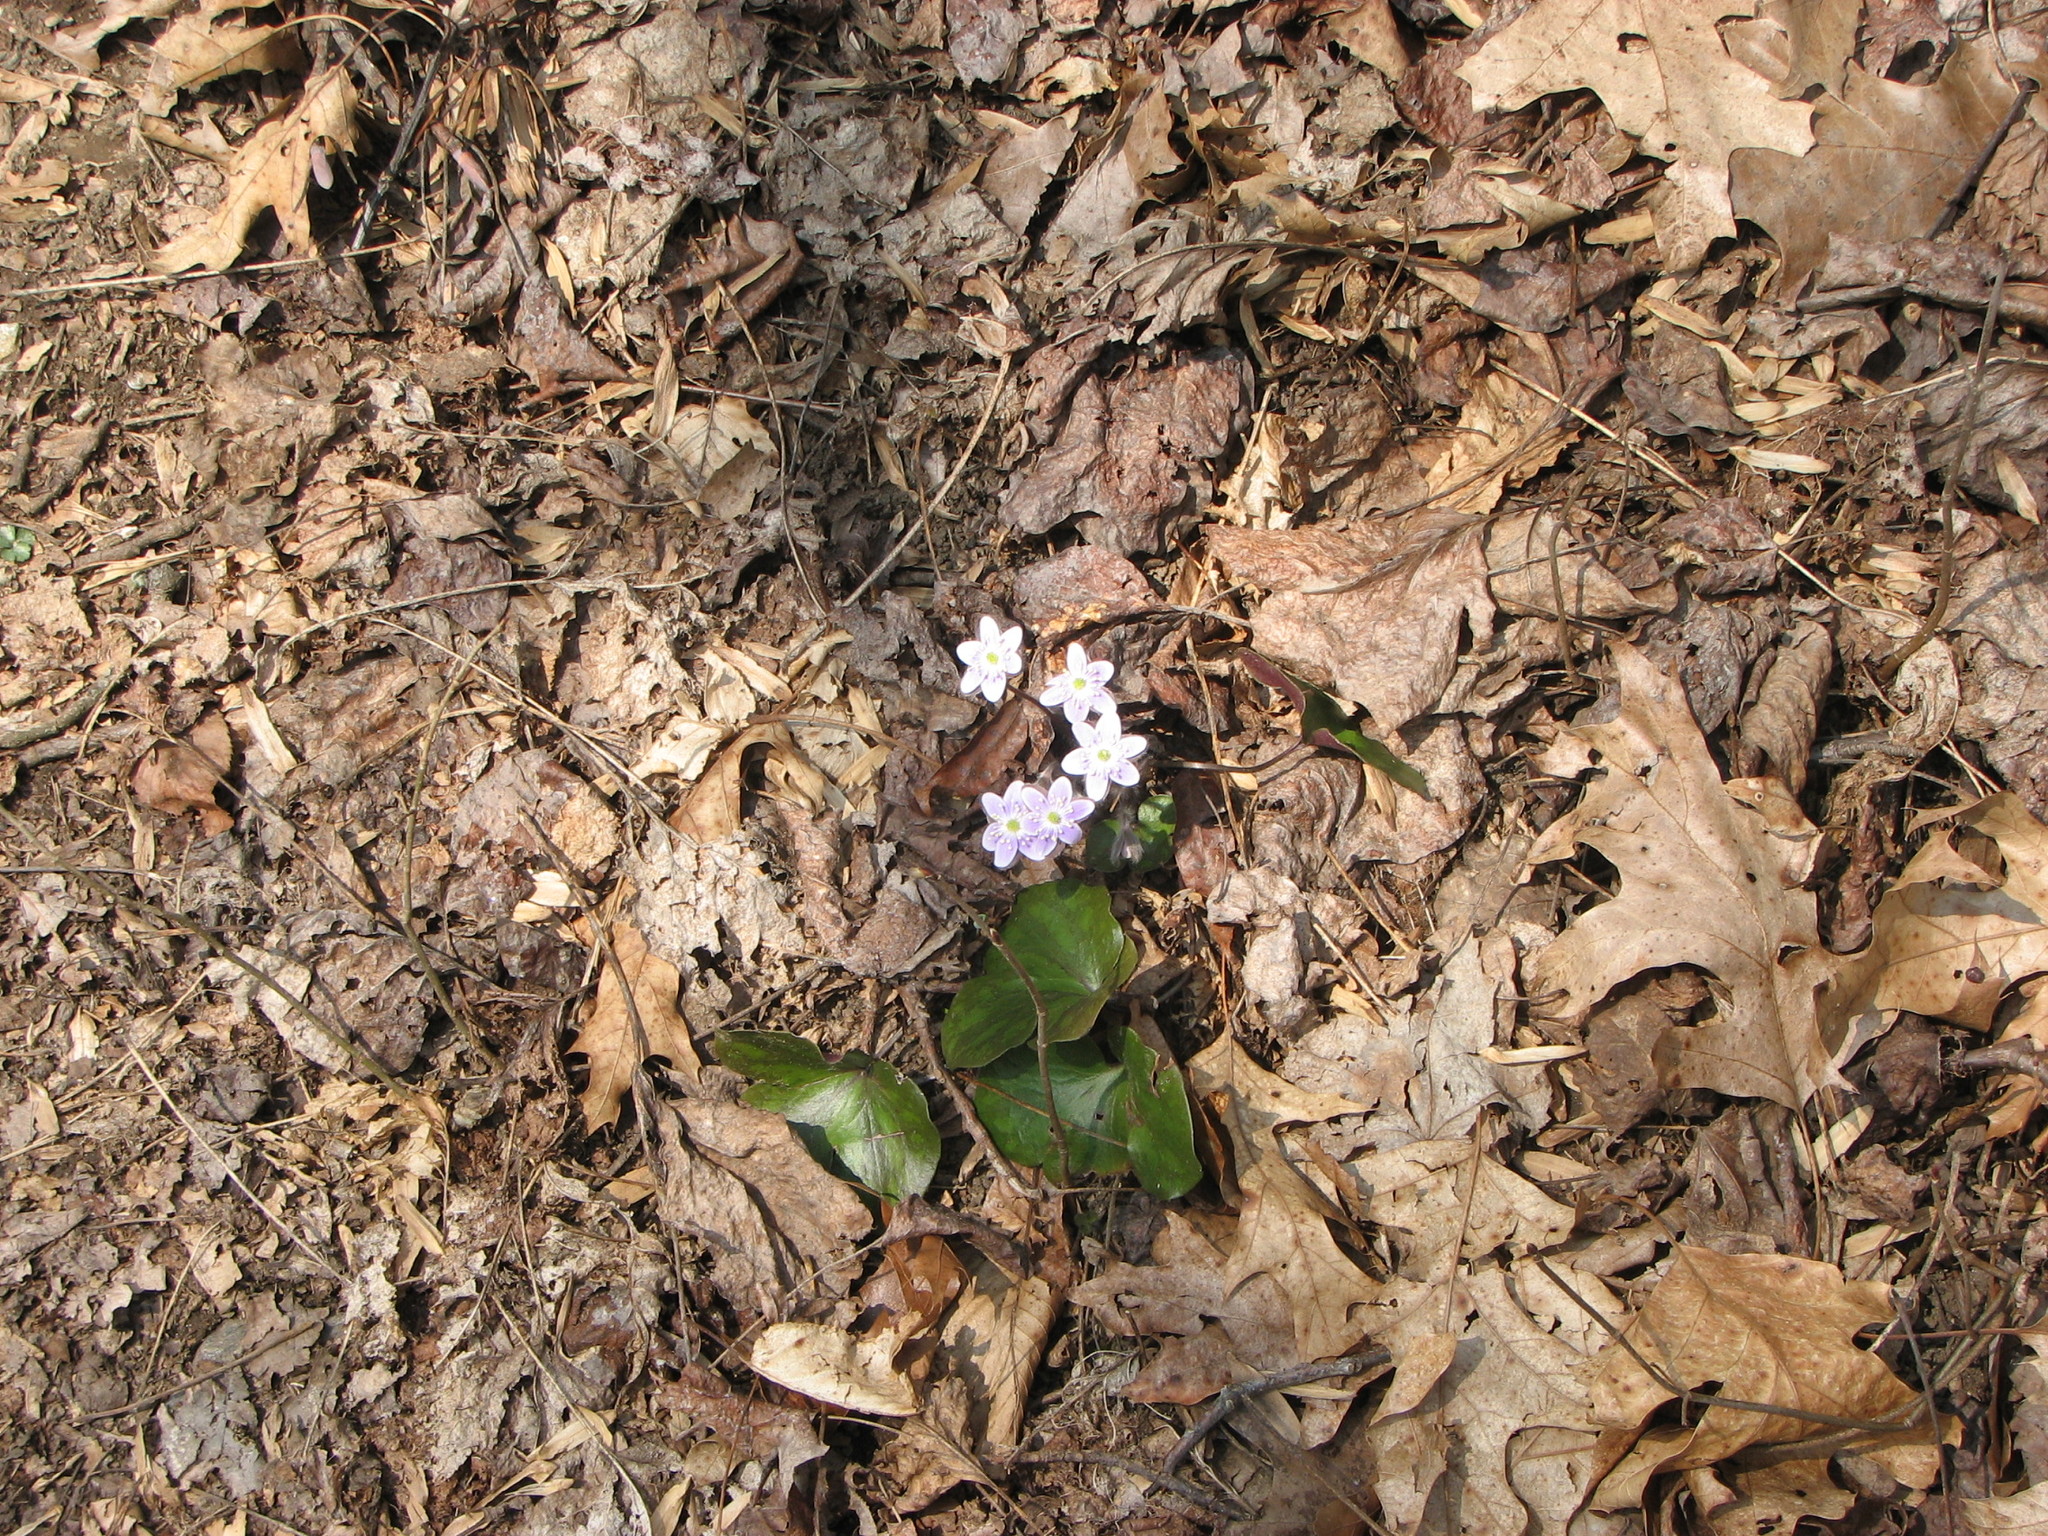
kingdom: Plantae
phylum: Tracheophyta
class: Magnoliopsida
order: Ranunculales
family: Ranunculaceae
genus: Hepatica
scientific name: Hepatica americana
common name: American hepatica
